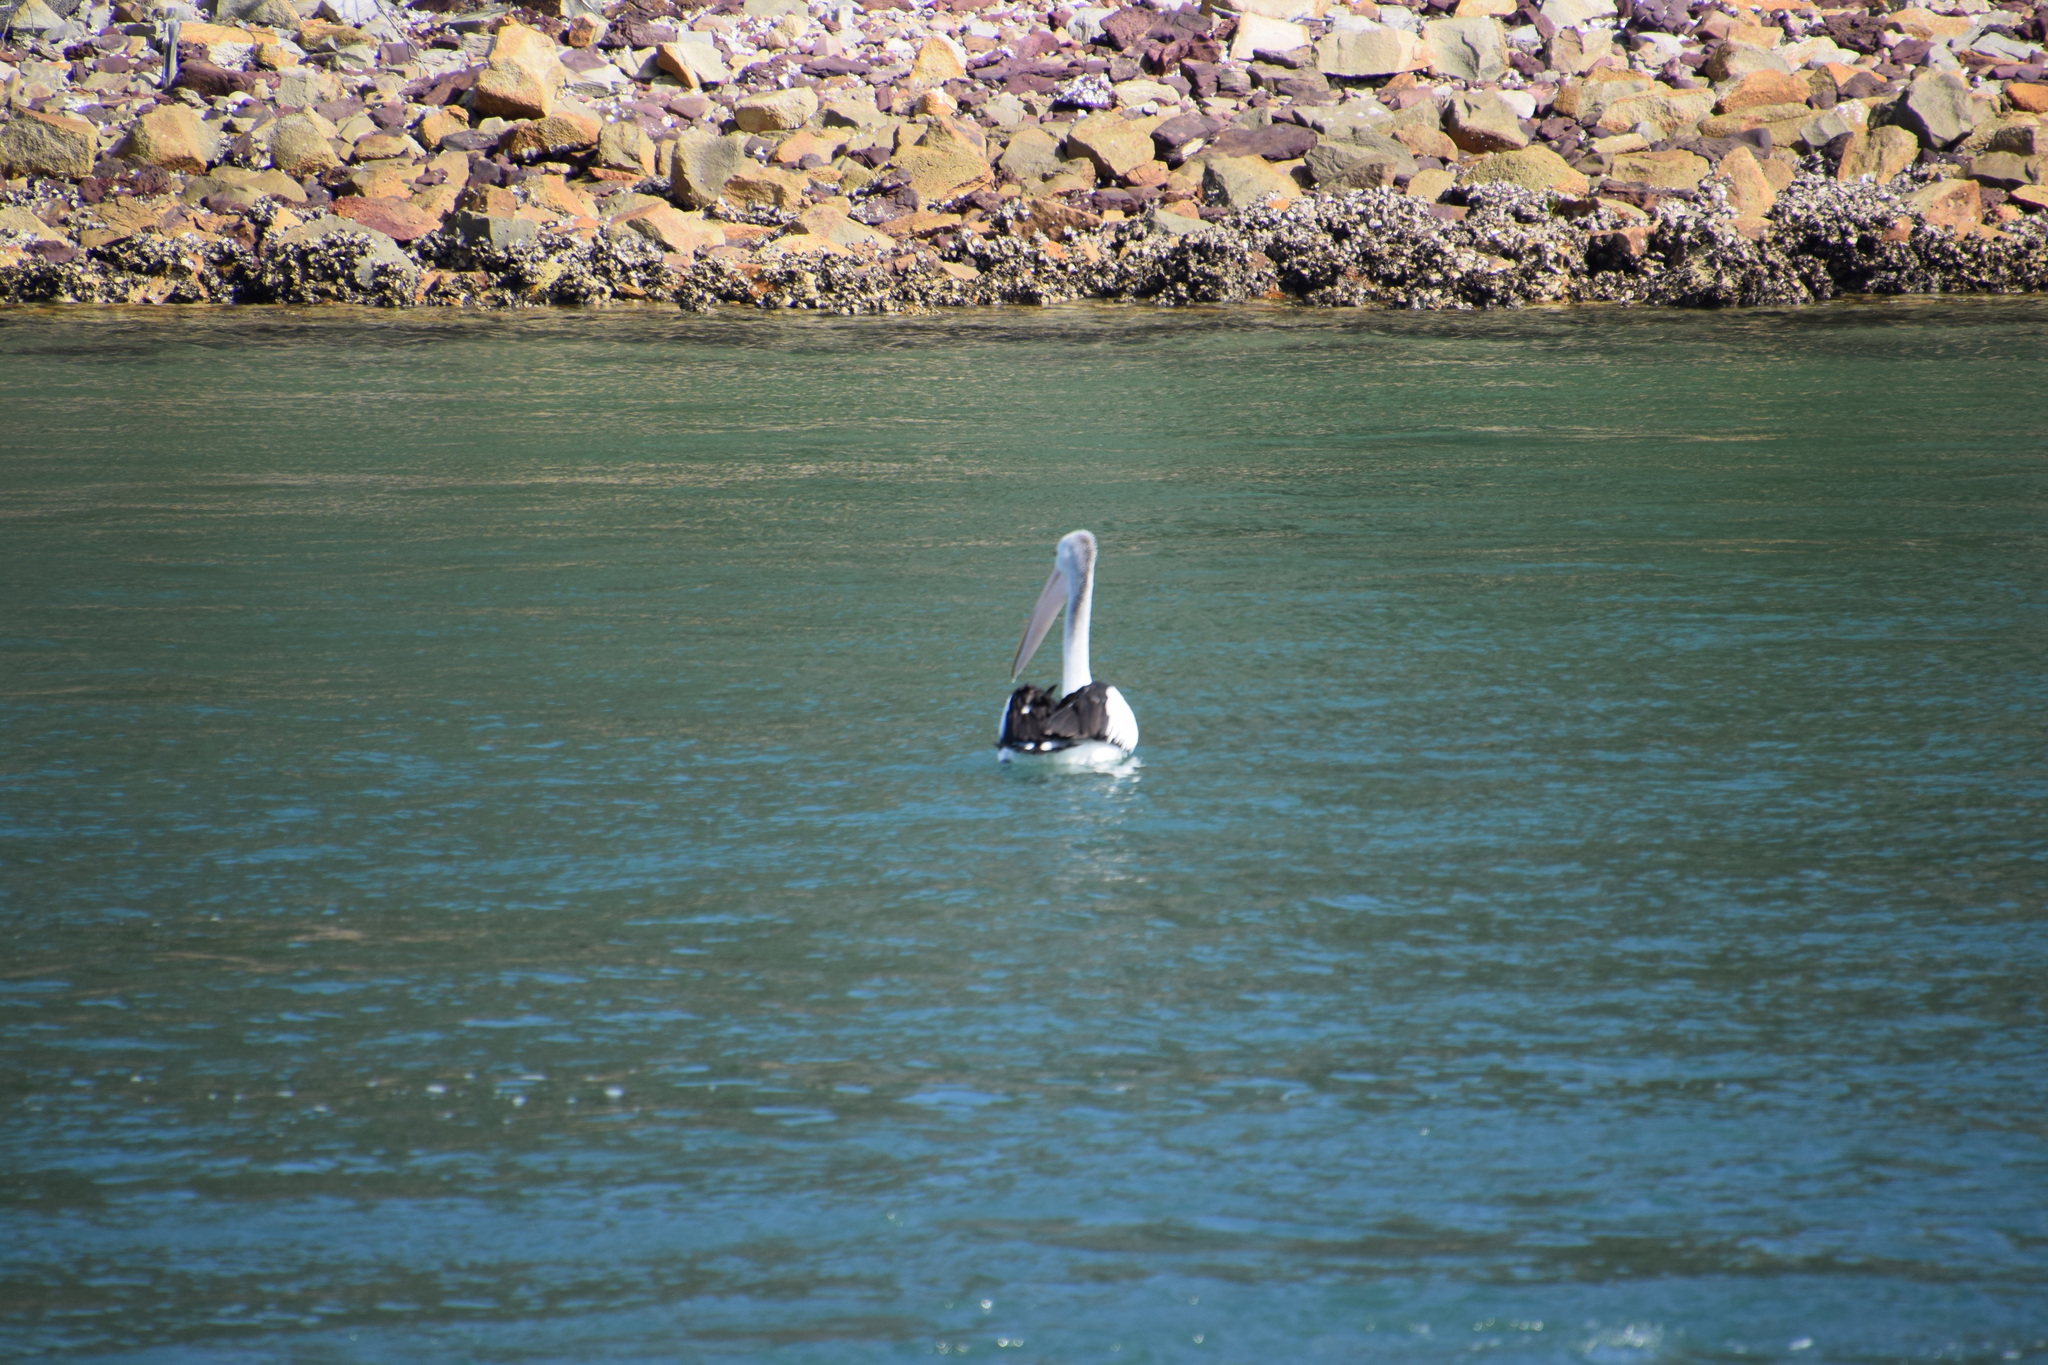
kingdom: Animalia
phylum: Chordata
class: Aves
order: Pelecaniformes
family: Pelecanidae
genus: Pelecanus
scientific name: Pelecanus conspicillatus
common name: Australian pelican
